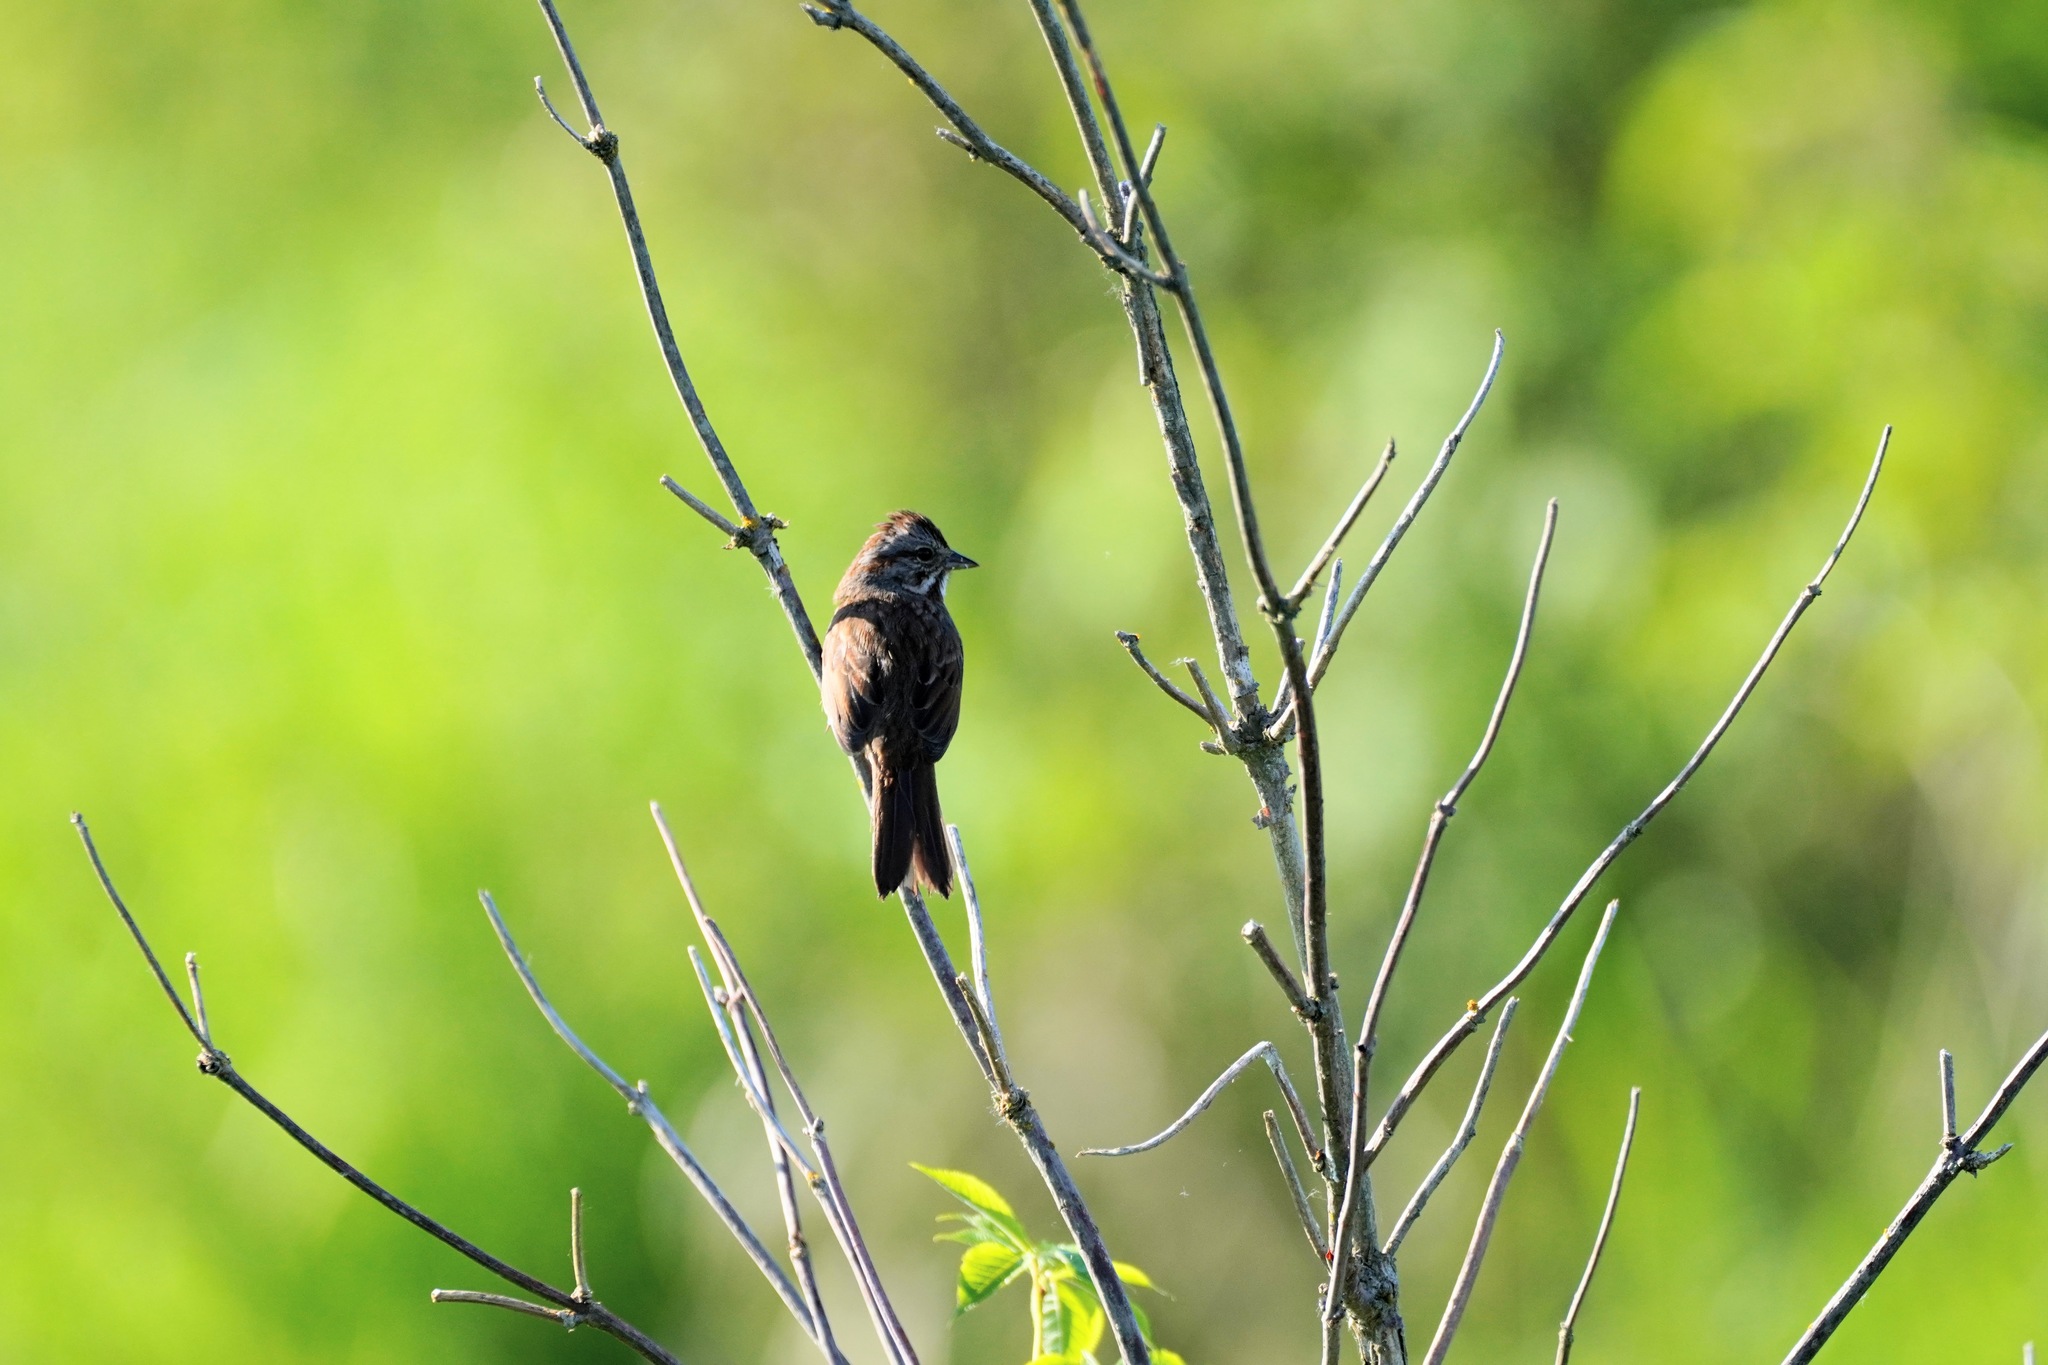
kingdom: Animalia
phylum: Chordata
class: Aves
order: Passeriformes
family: Passerellidae
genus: Melospiza
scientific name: Melospiza melodia
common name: Song sparrow
